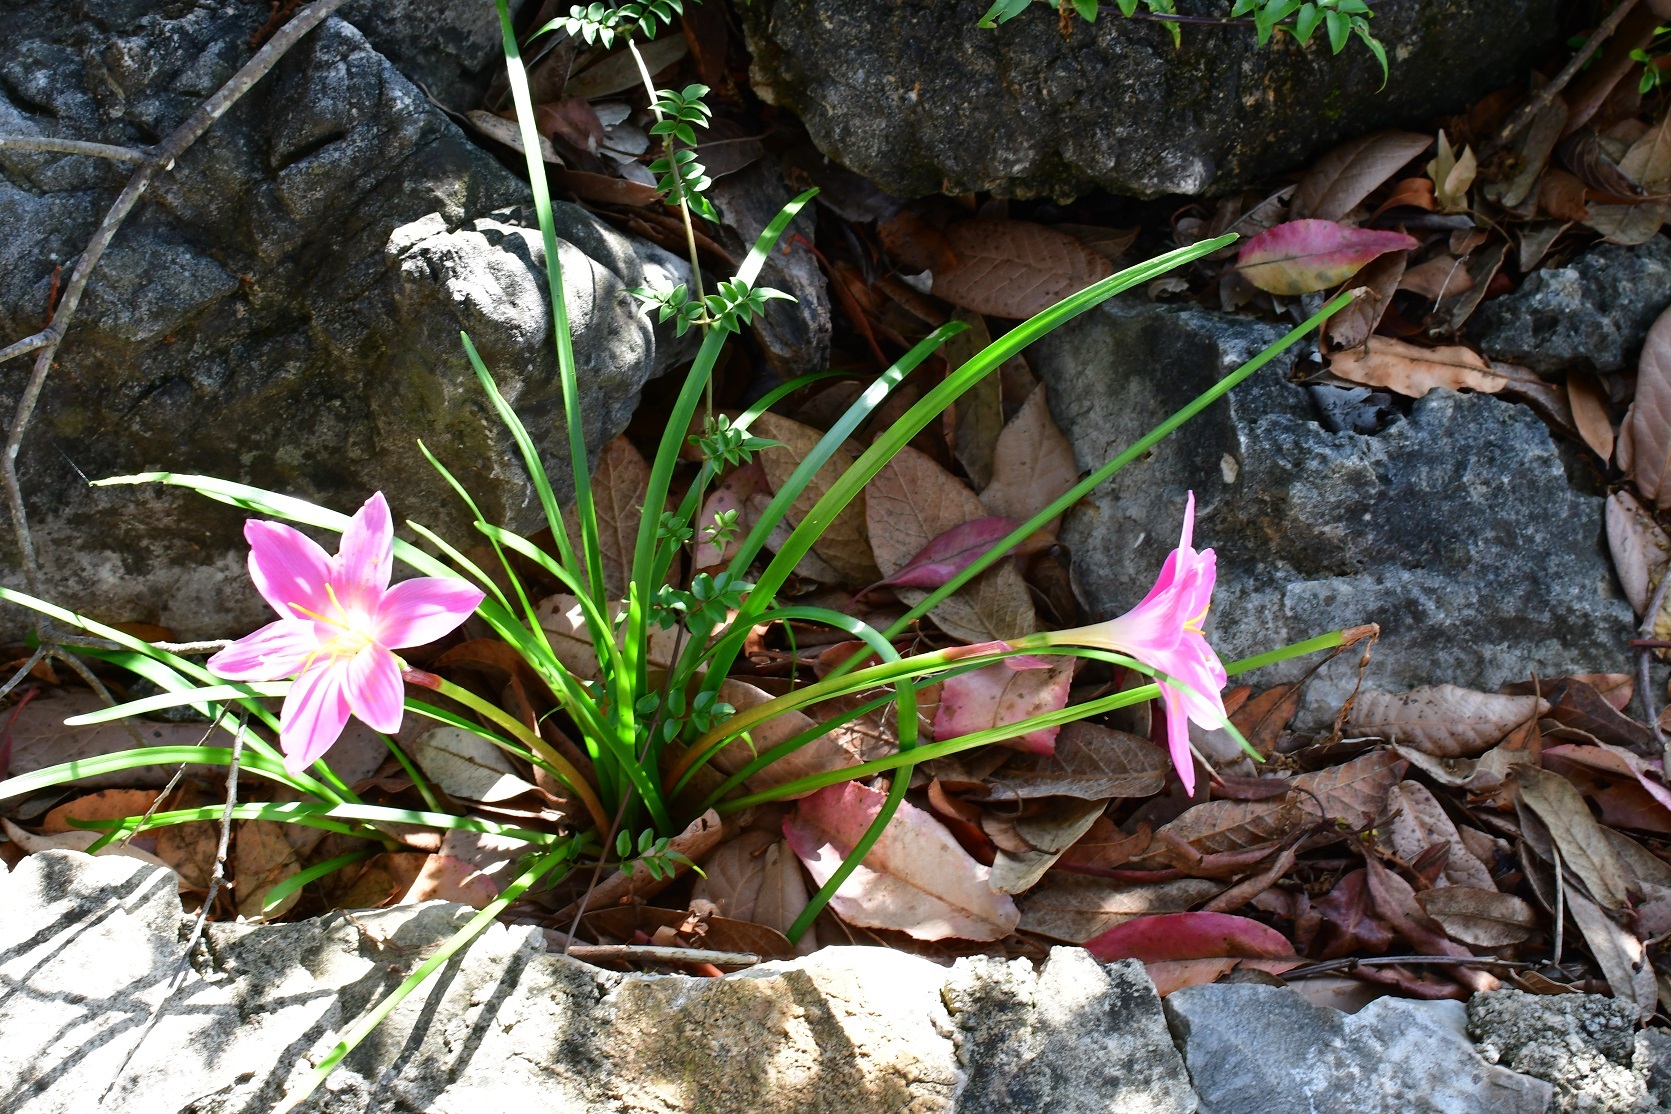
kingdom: Plantae
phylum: Tracheophyta
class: Liliopsida
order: Asparagales
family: Amaryllidaceae
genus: Zephyranthes
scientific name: Zephyranthes carinata
